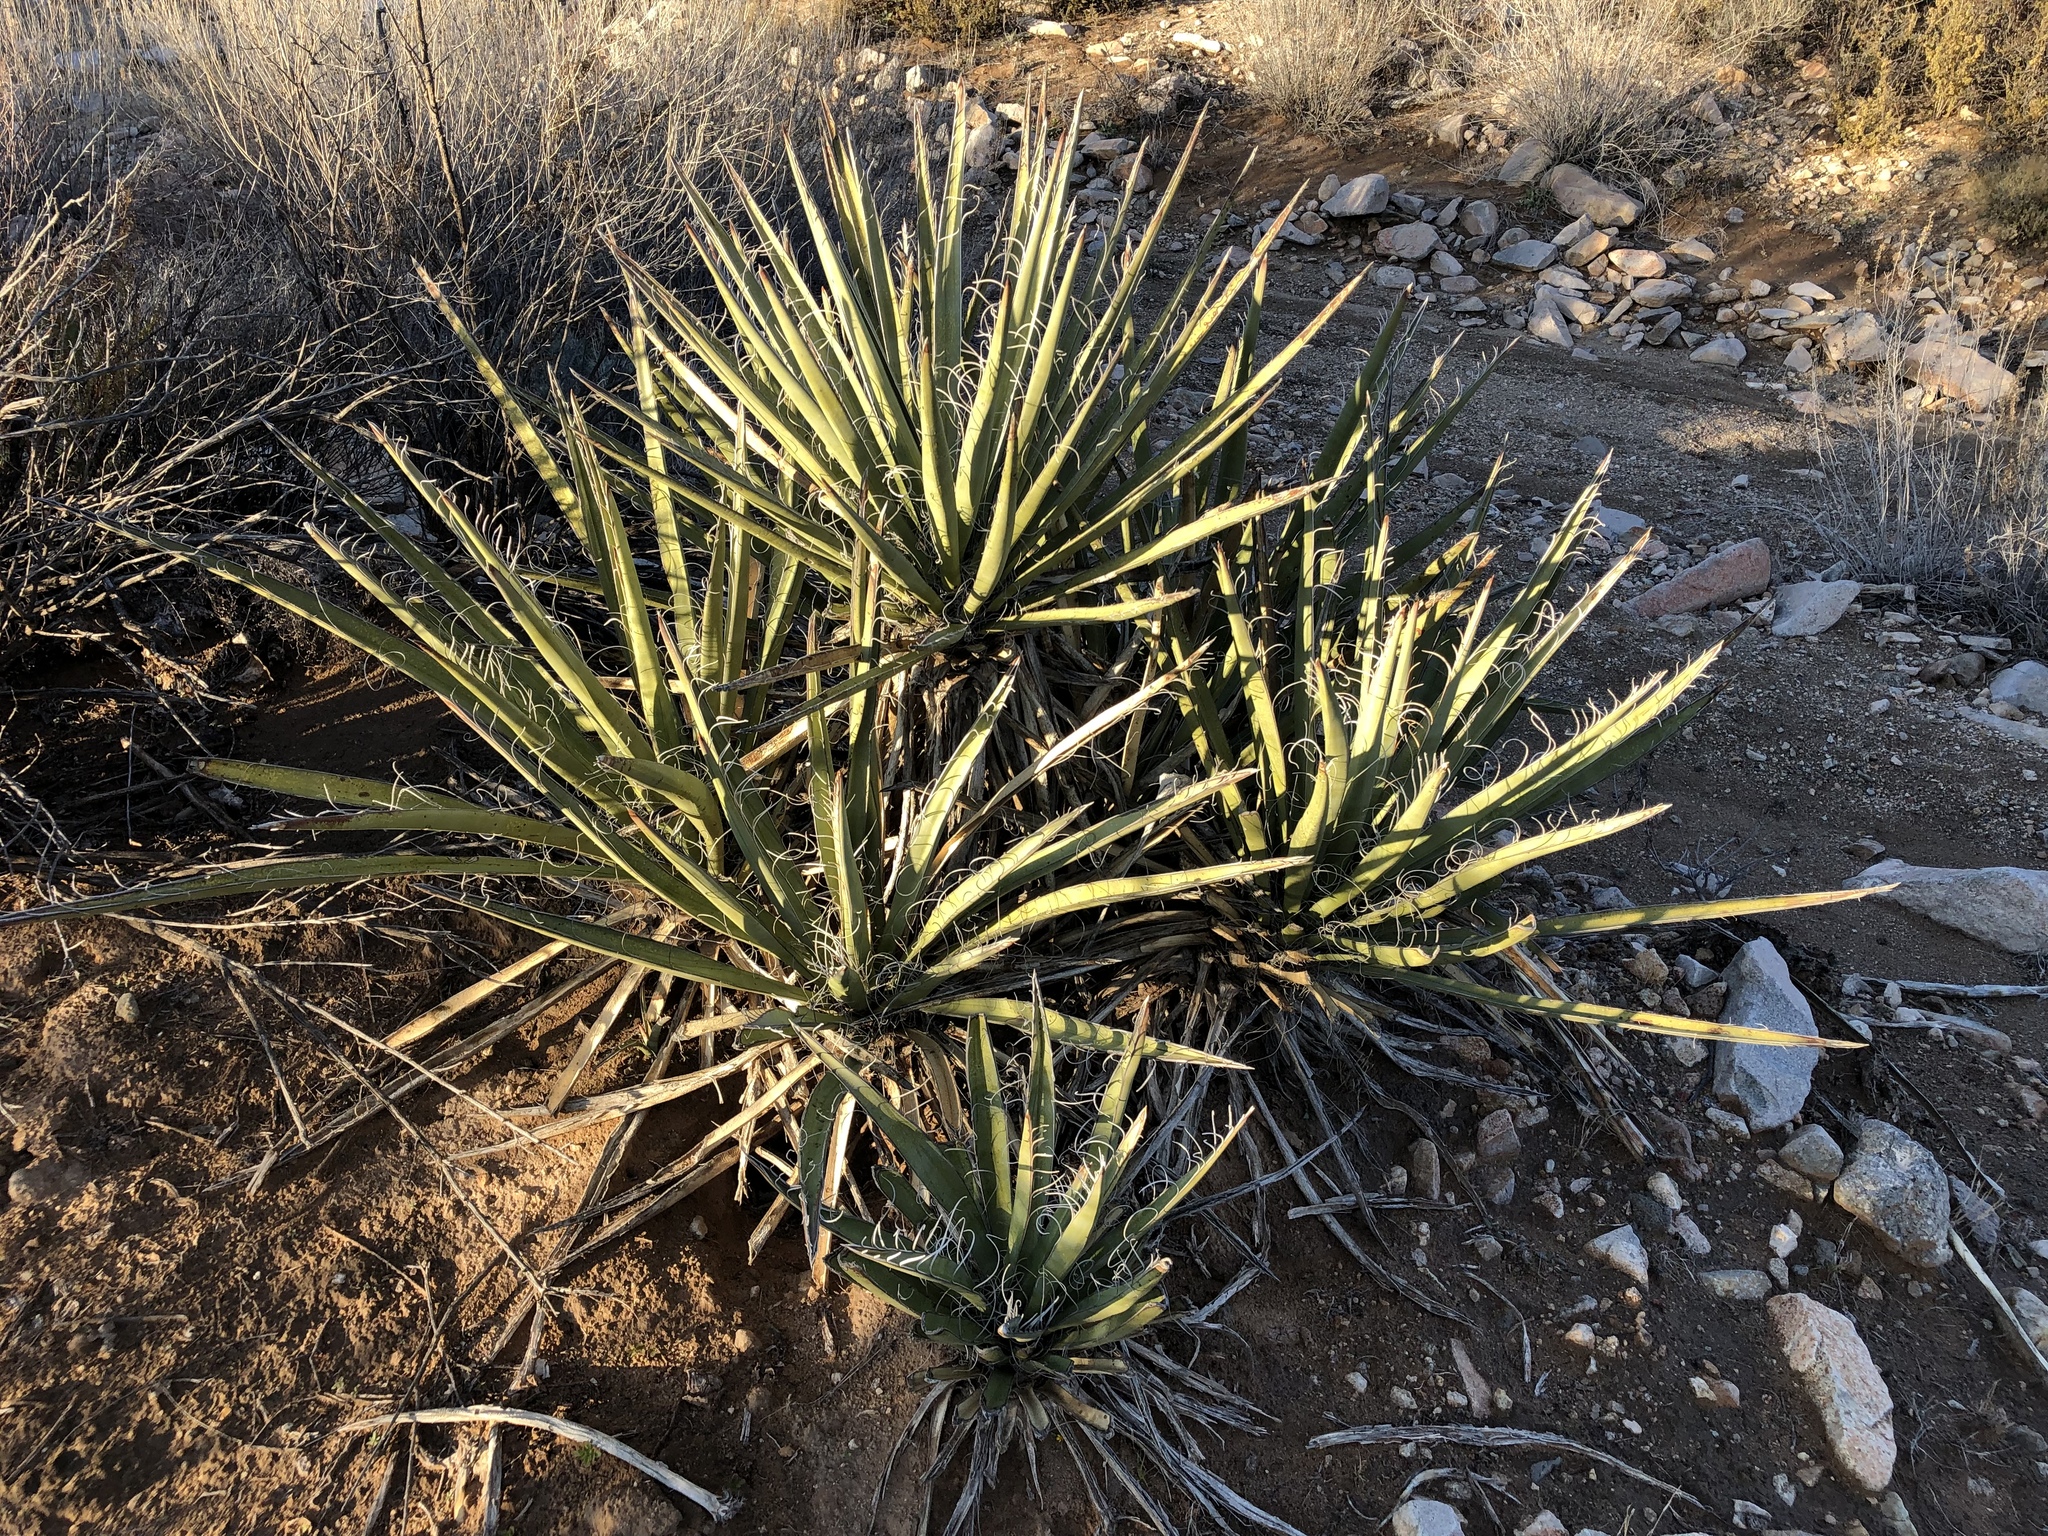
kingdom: Plantae
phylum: Tracheophyta
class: Liliopsida
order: Asparagales
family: Asparagaceae
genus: Yucca
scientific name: Yucca baccata
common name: Banana yucca
